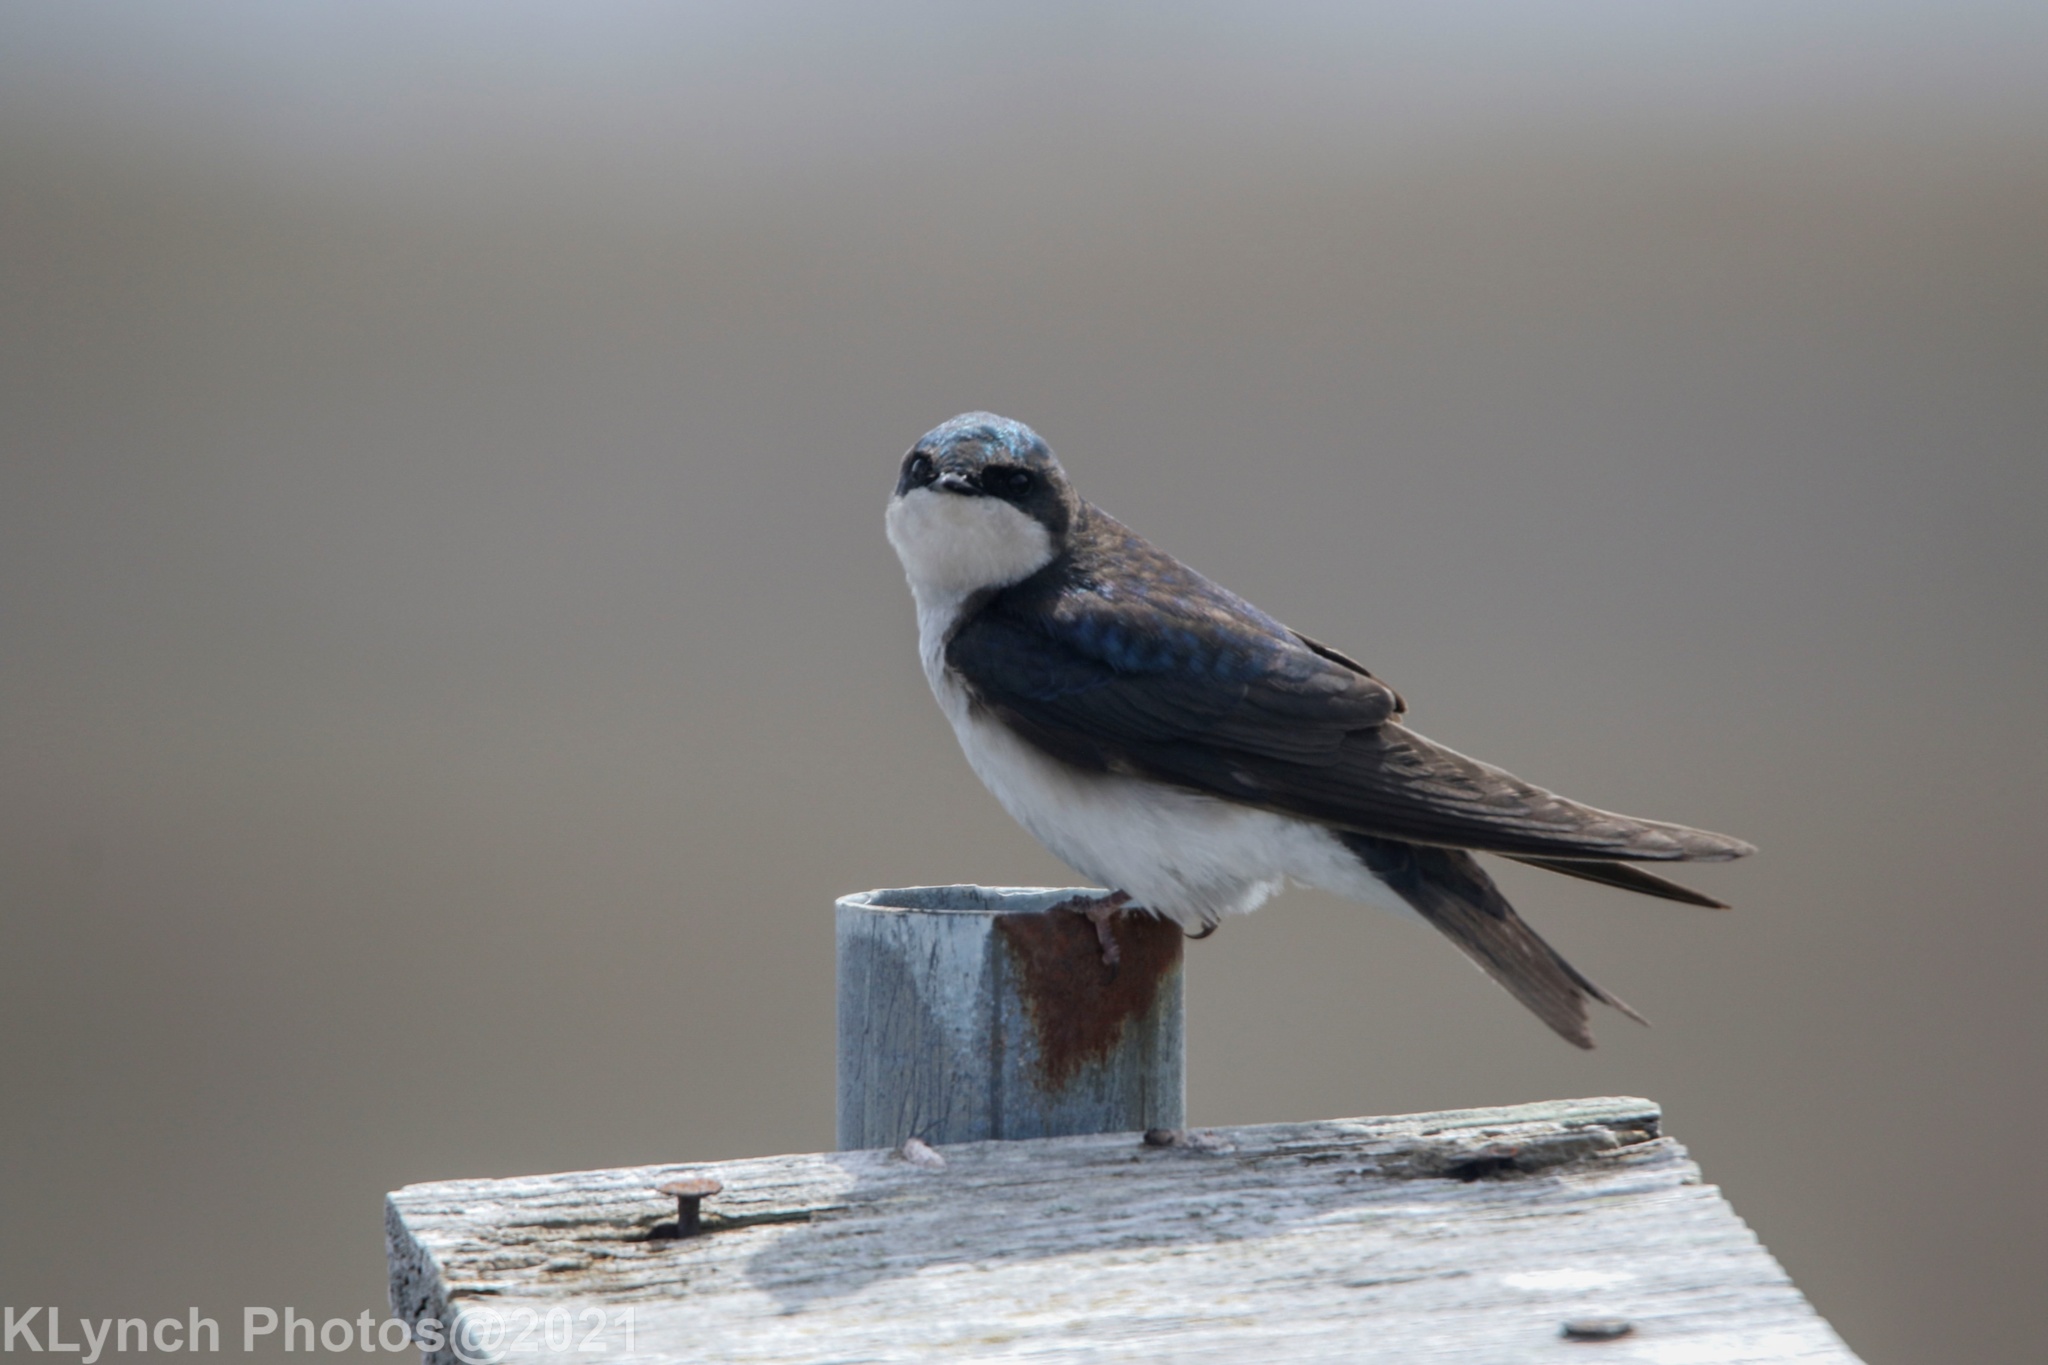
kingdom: Animalia
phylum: Chordata
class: Aves
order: Passeriformes
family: Hirundinidae
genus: Tachycineta
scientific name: Tachycineta bicolor
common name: Tree swallow
